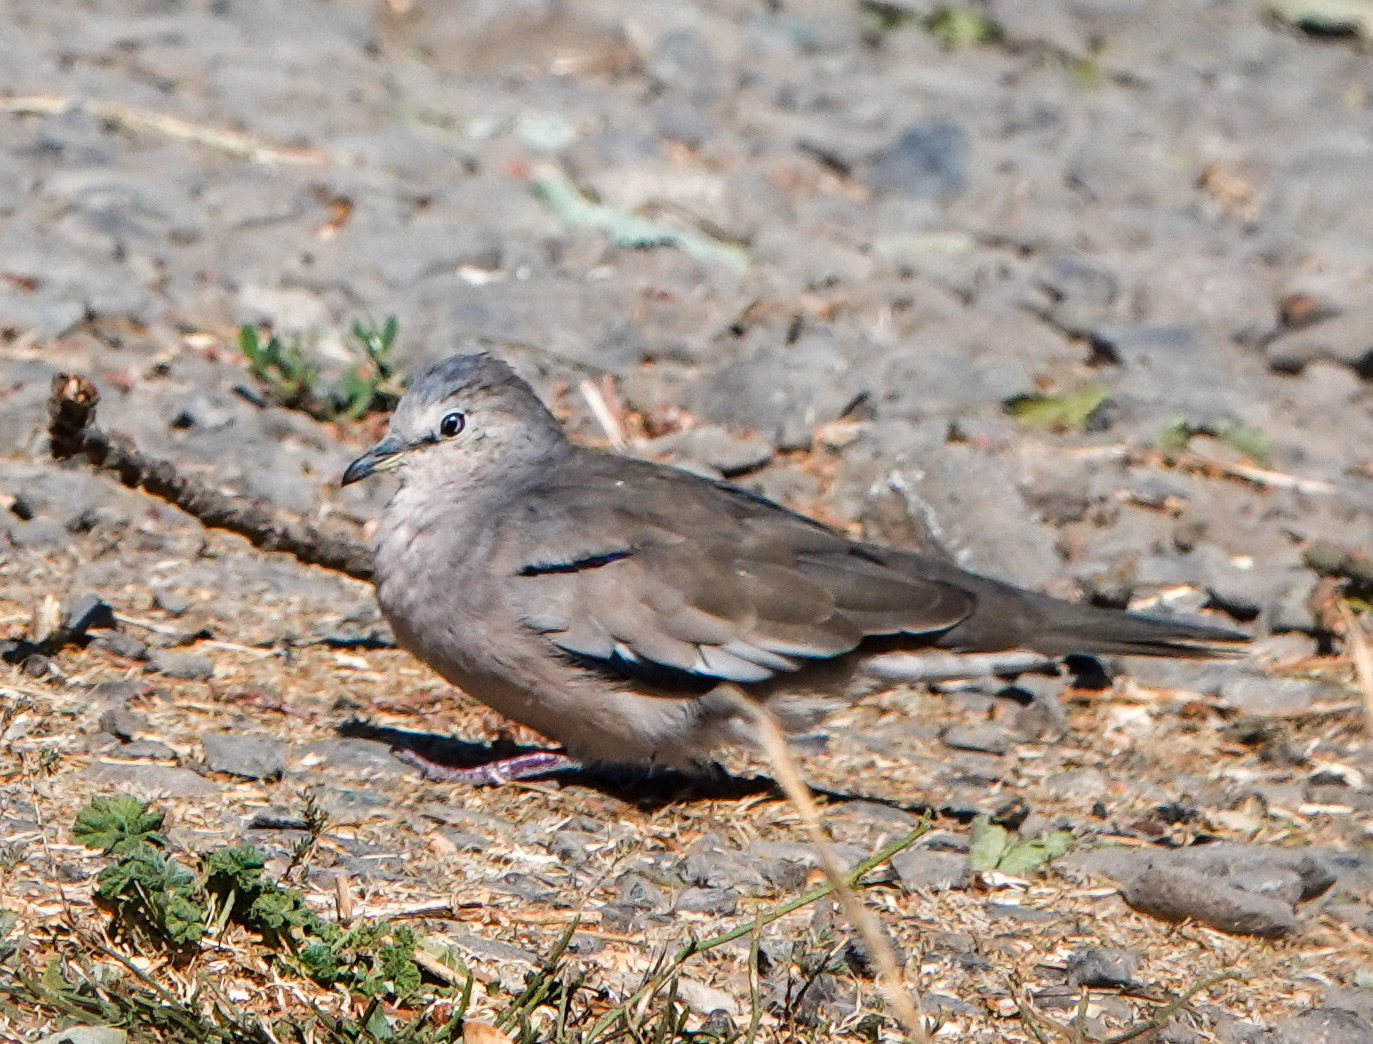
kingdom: Animalia
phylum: Chordata
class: Aves
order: Columbiformes
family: Columbidae
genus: Columbina
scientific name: Columbina picui
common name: Picui ground dove
